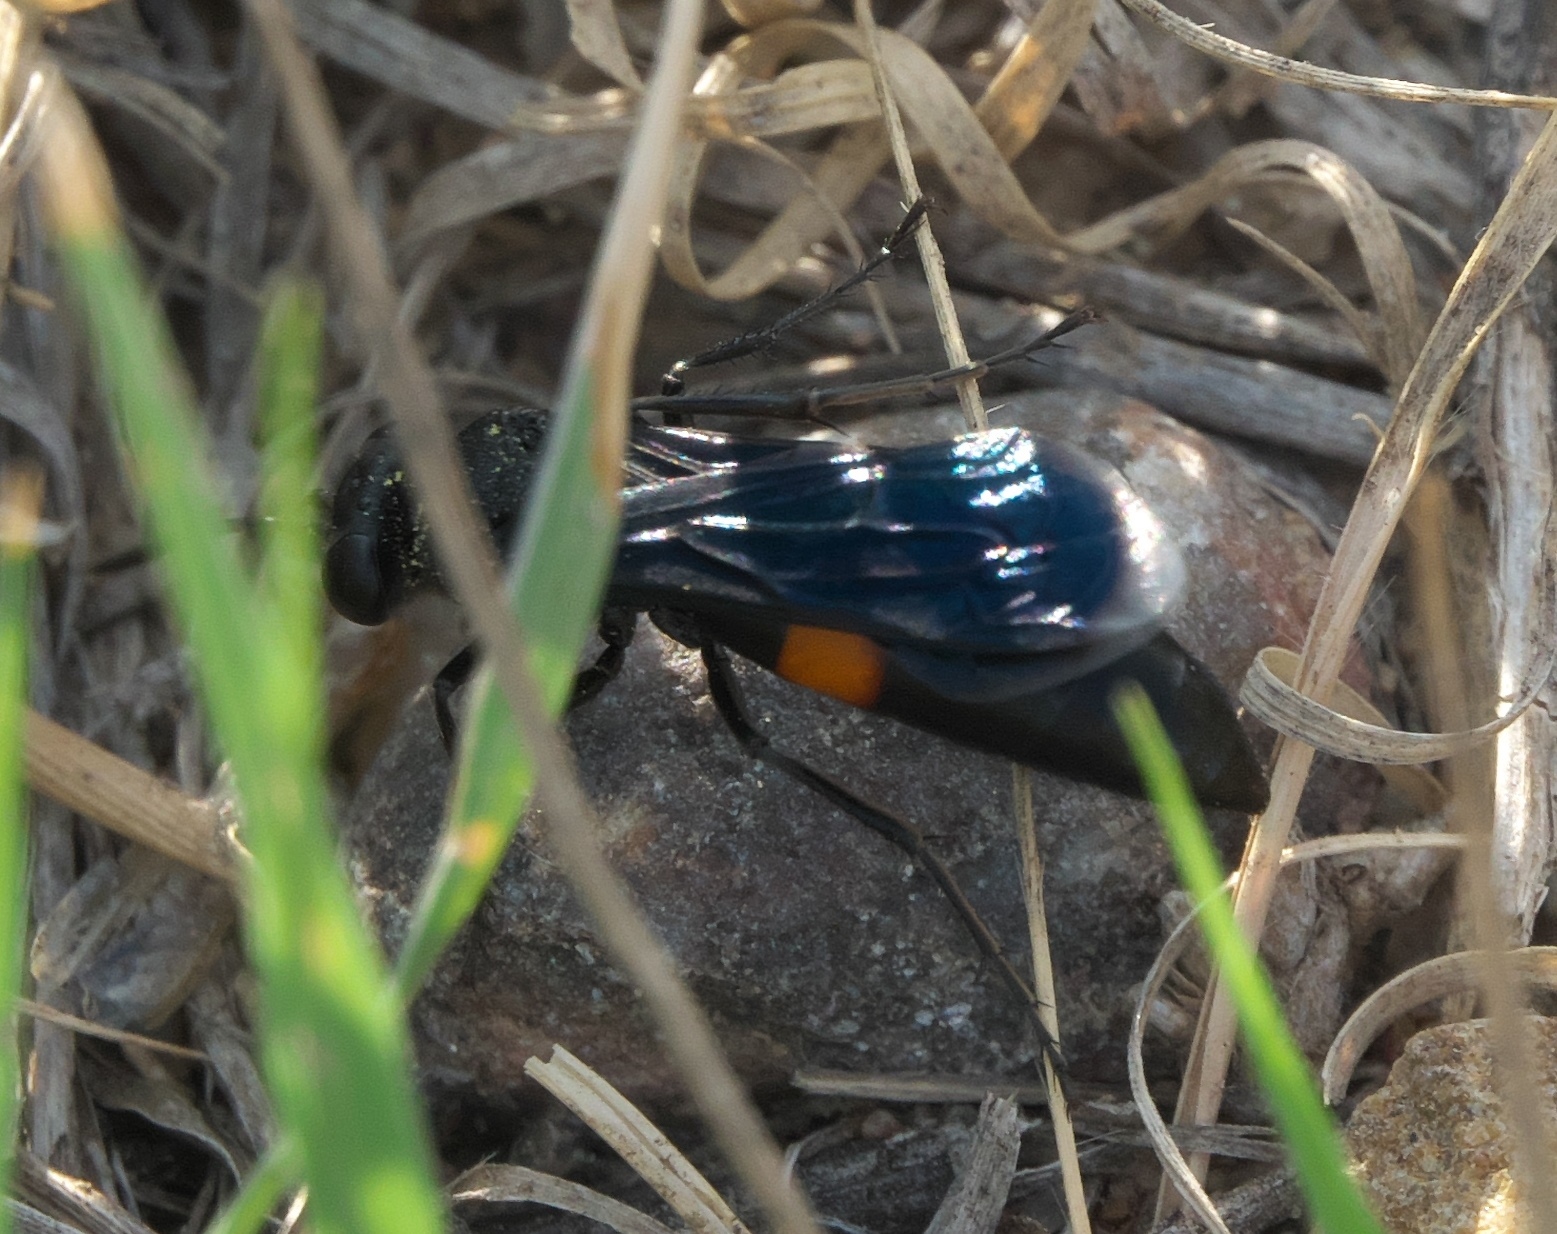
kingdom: Animalia
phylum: Arthropoda
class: Insecta
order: Hymenoptera
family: Crabronidae
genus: Stizoides
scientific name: Stizoides renicinctus
